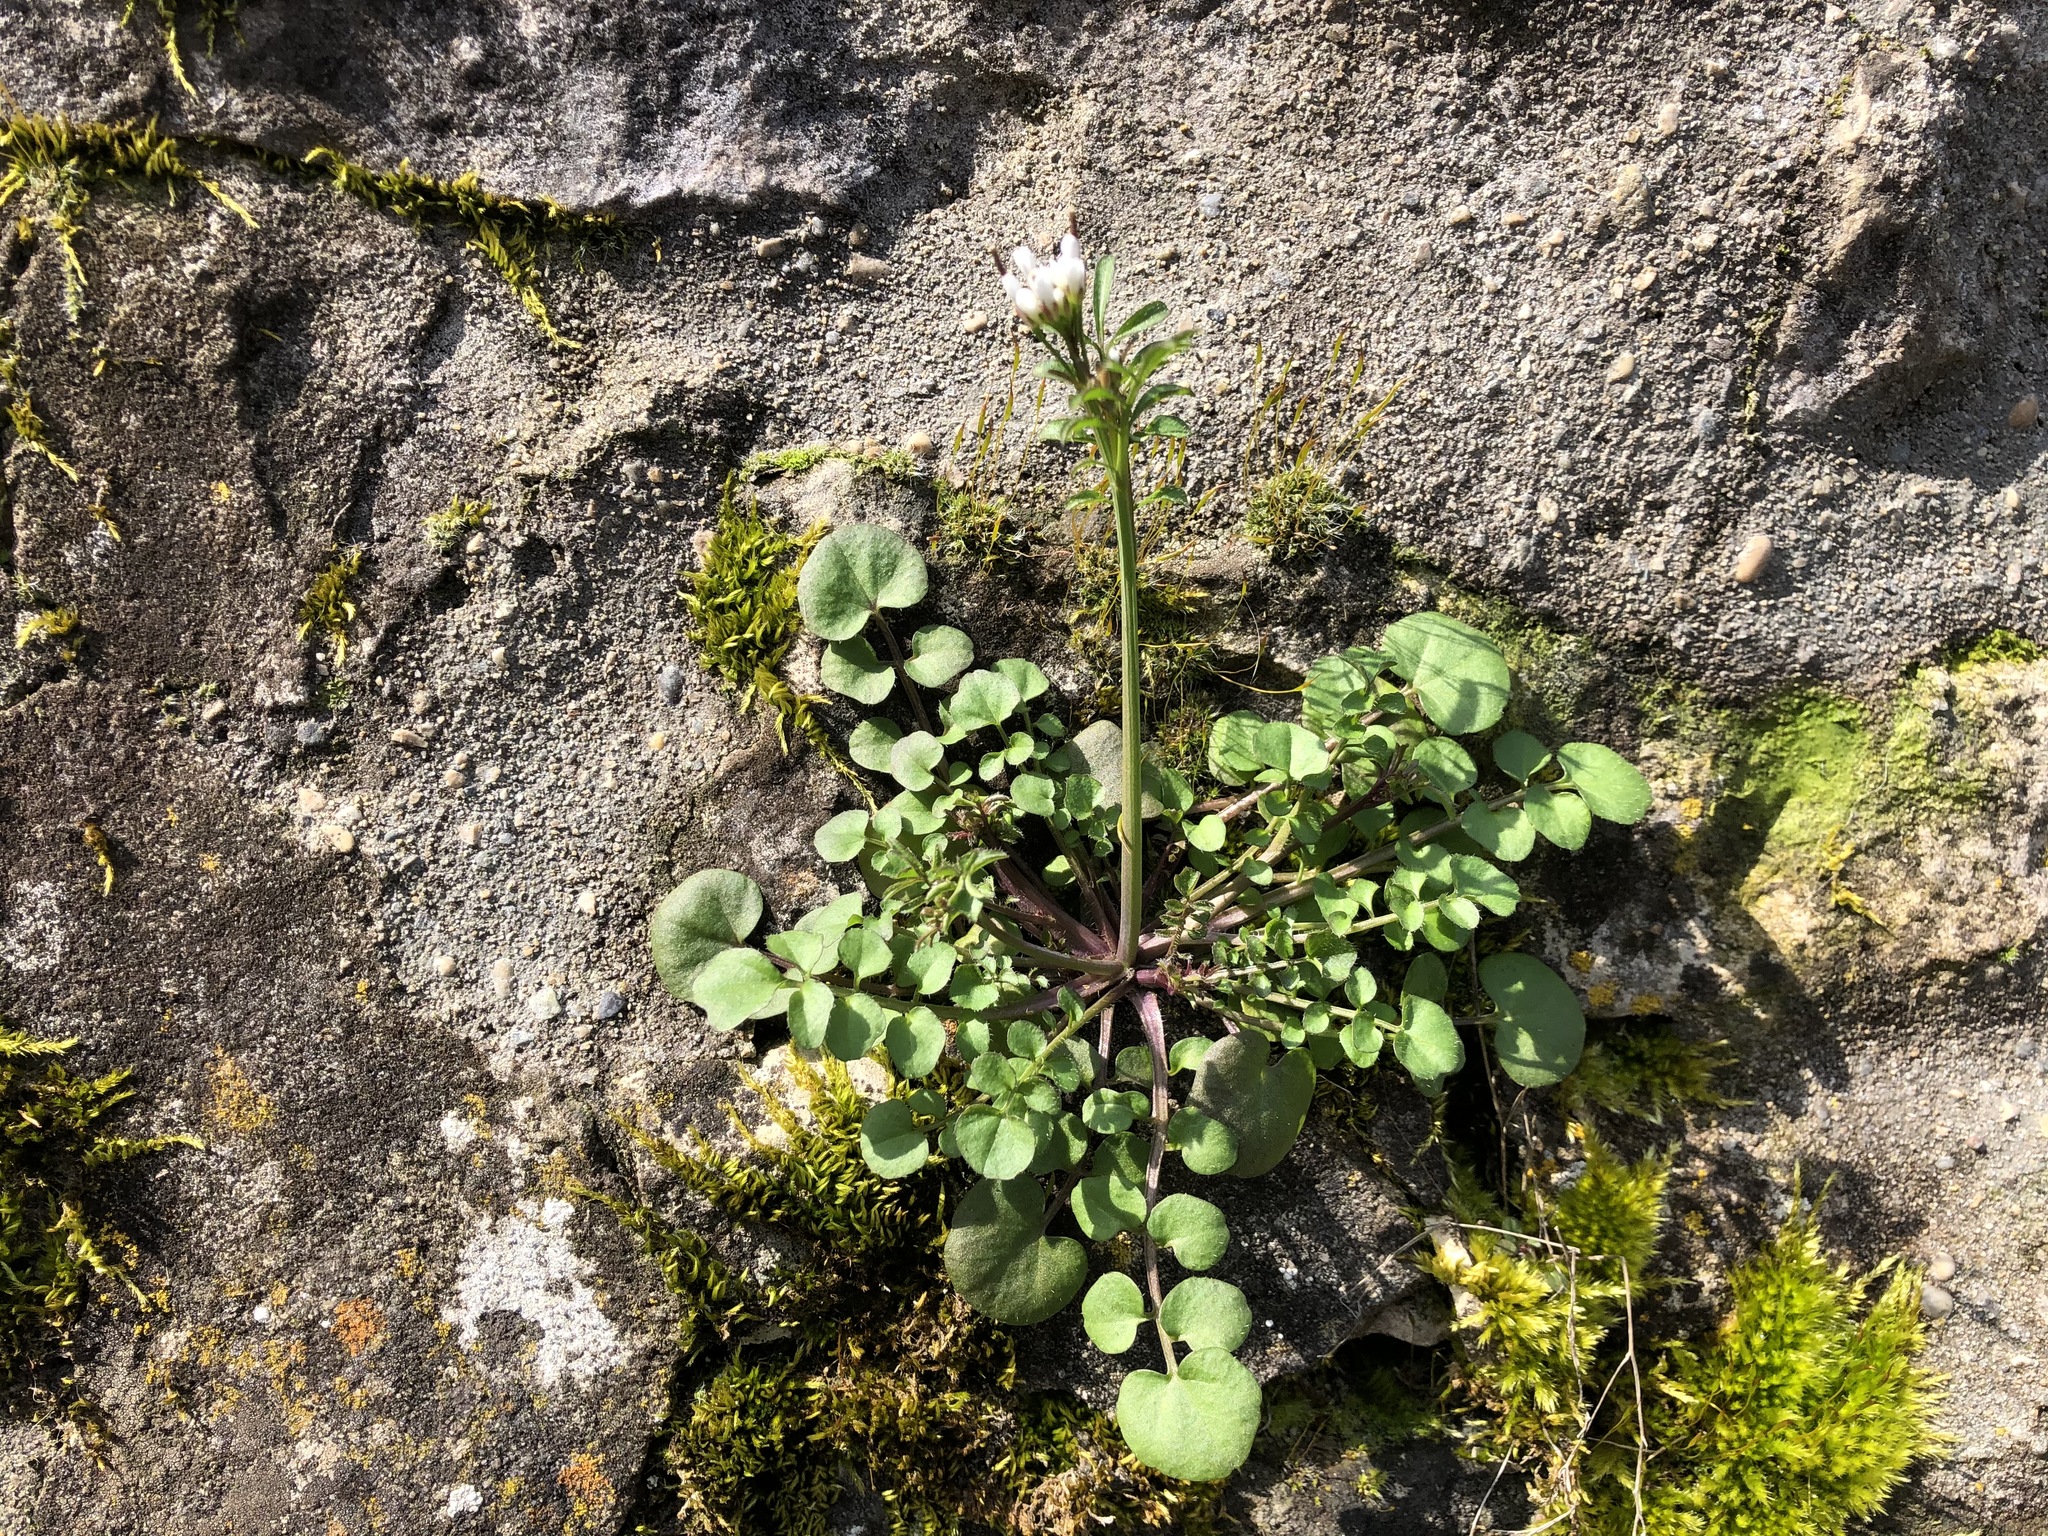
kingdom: Plantae
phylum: Tracheophyta
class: Magnoliopsida
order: Brassicales
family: Brassicaceae
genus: Cardamine
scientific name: Cardamine hirsuta
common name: Hairy bittercress
